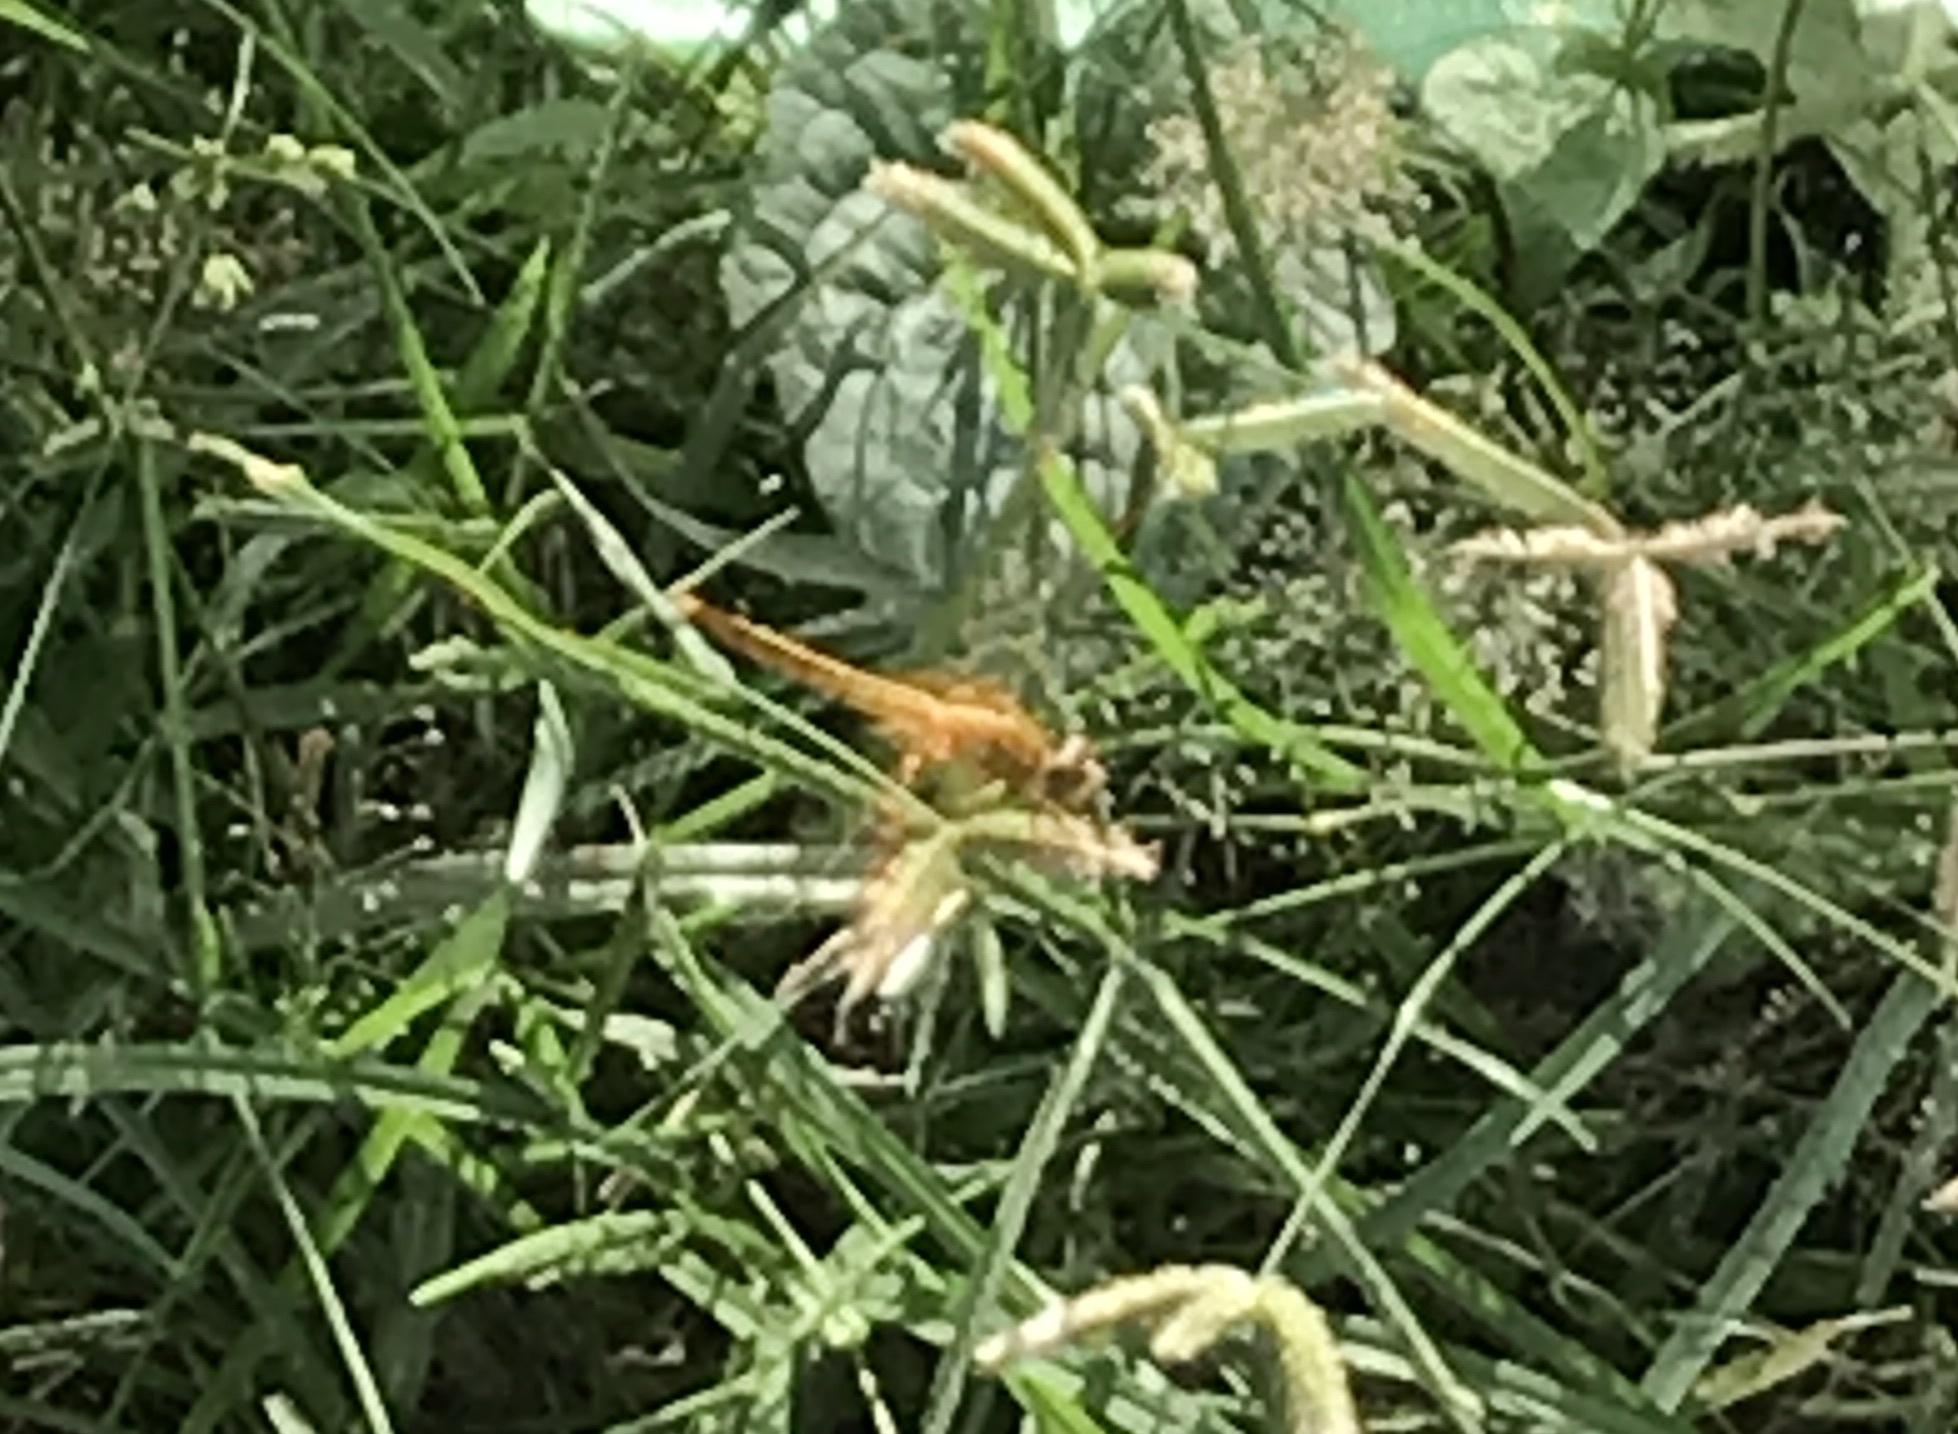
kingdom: Animalia
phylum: Arthropoda
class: Insecta
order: Odonata
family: Libellulidae
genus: Brachythemis
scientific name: Brachythemis contaminata
